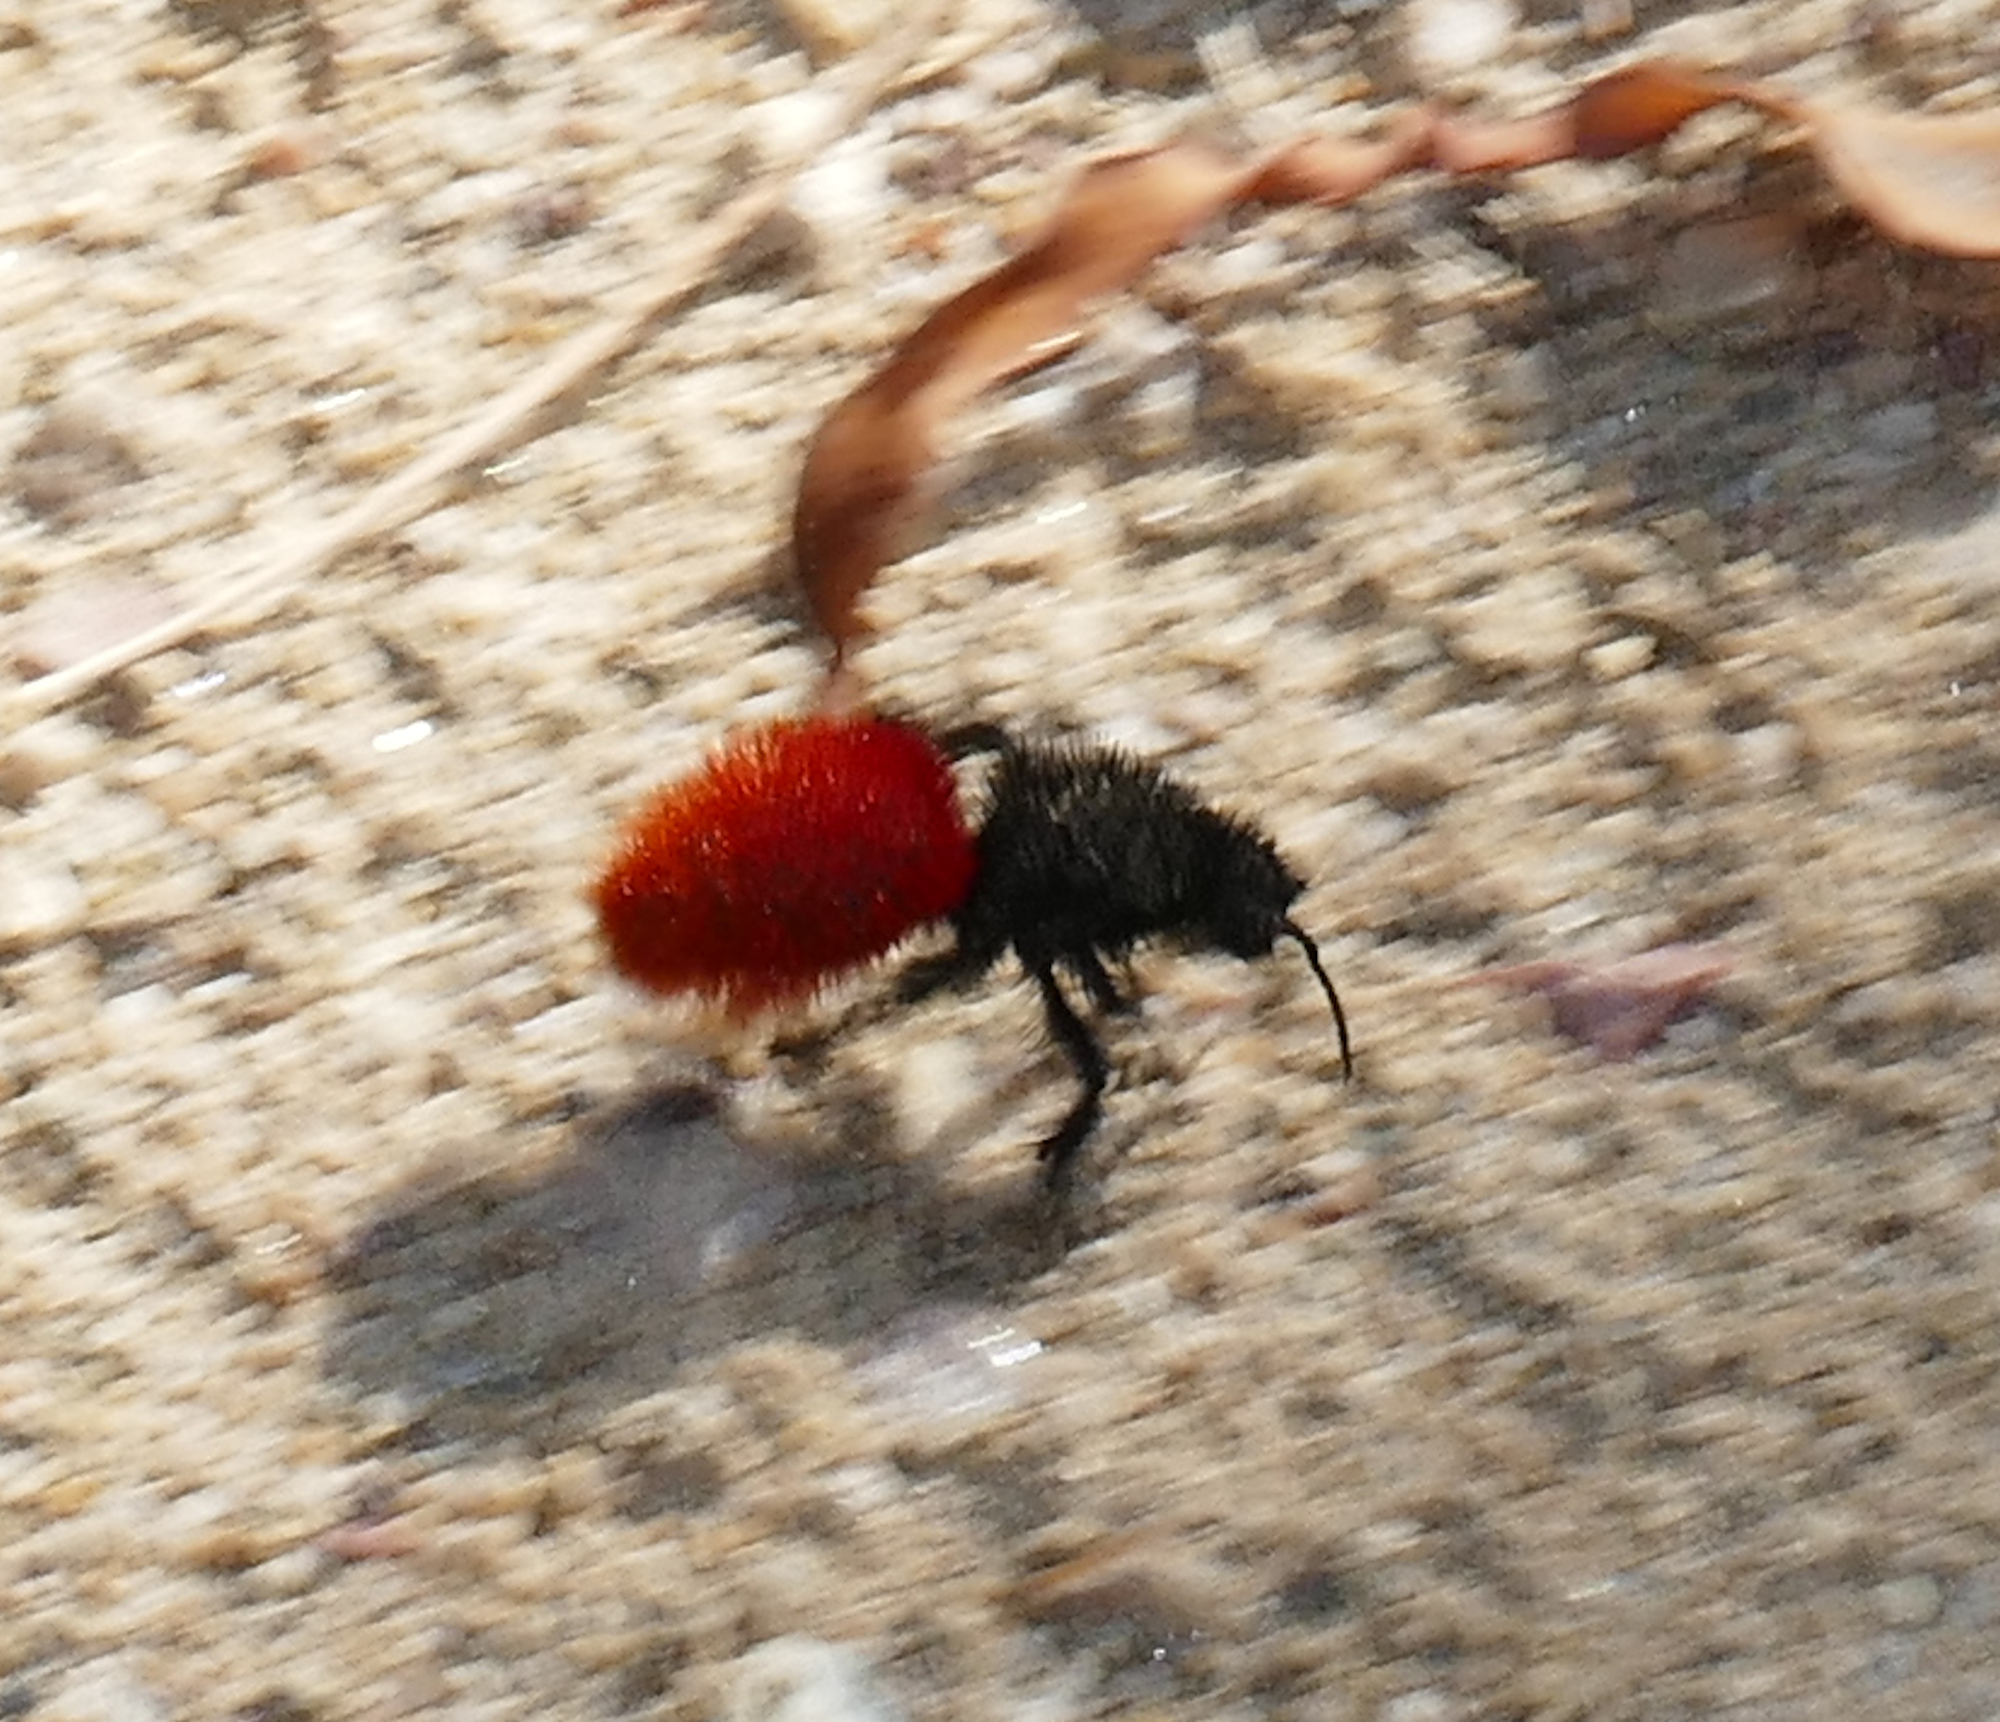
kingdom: Animalia
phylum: Arthropoda
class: Insecta
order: Hymenoptera
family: Mutillidae
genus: Dasymutilla
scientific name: Dasymutilla magnifica
